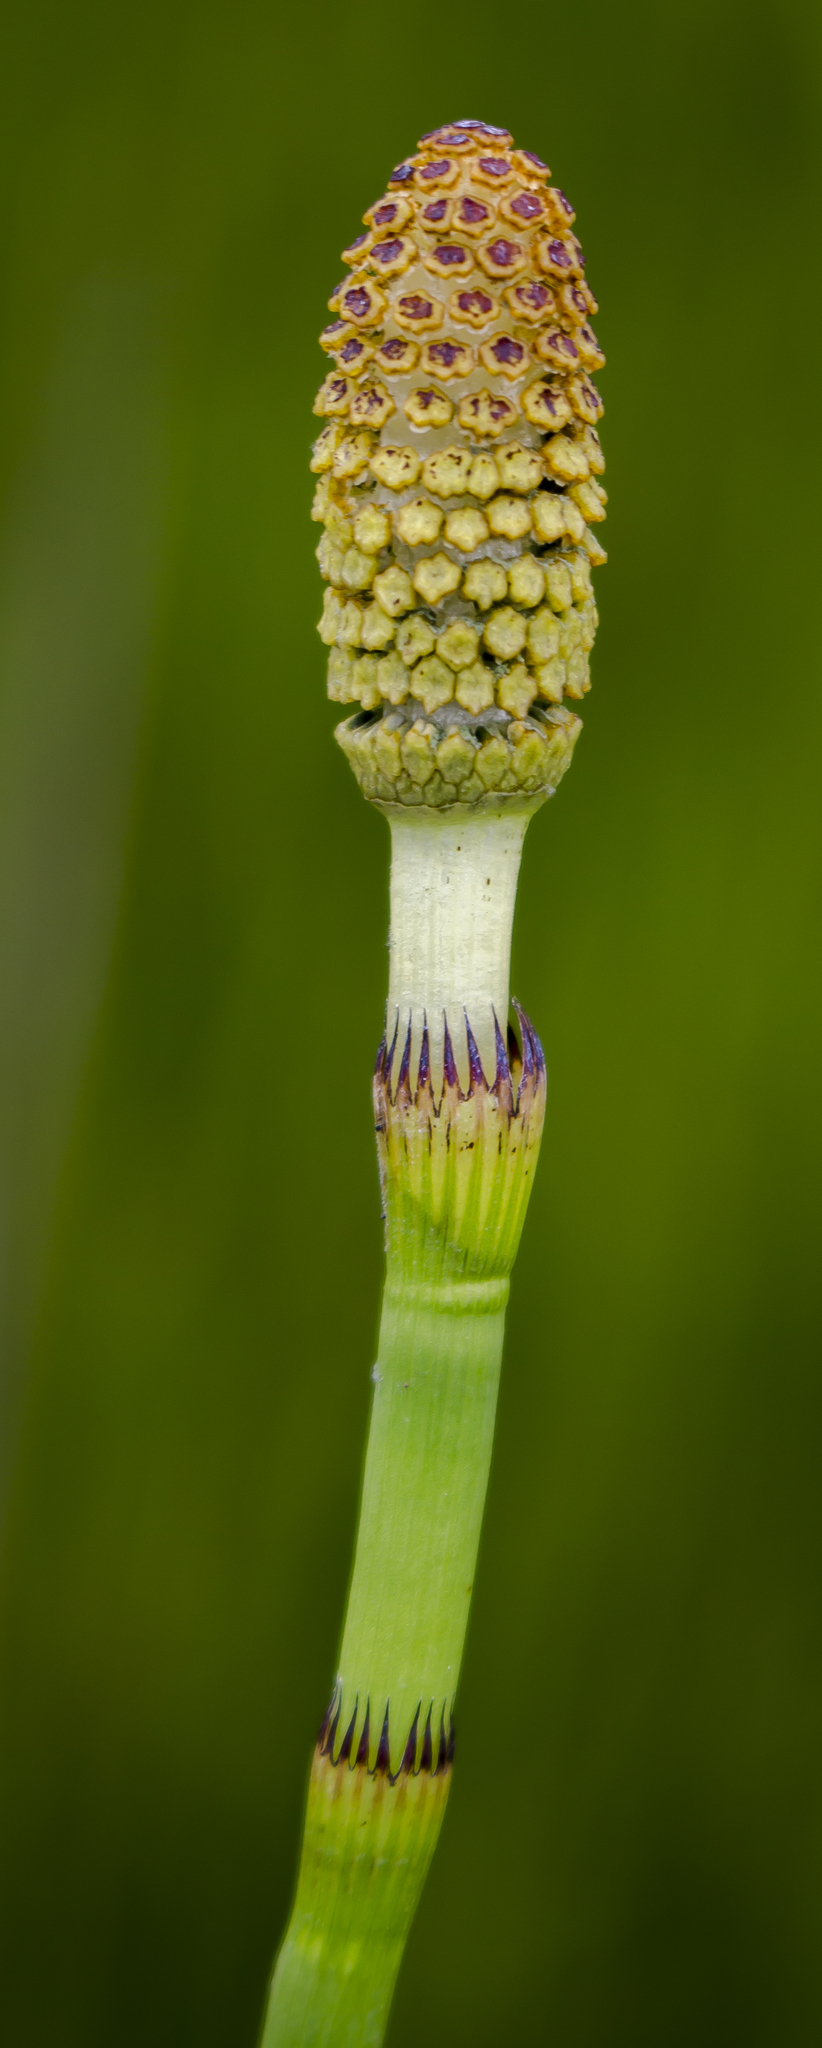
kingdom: Plantae
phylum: Tracheophyta
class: Polypodiopsida
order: Equisetales
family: Equisetaceae
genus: Equisetum
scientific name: Equisetum fluviatile
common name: Water horsetail
